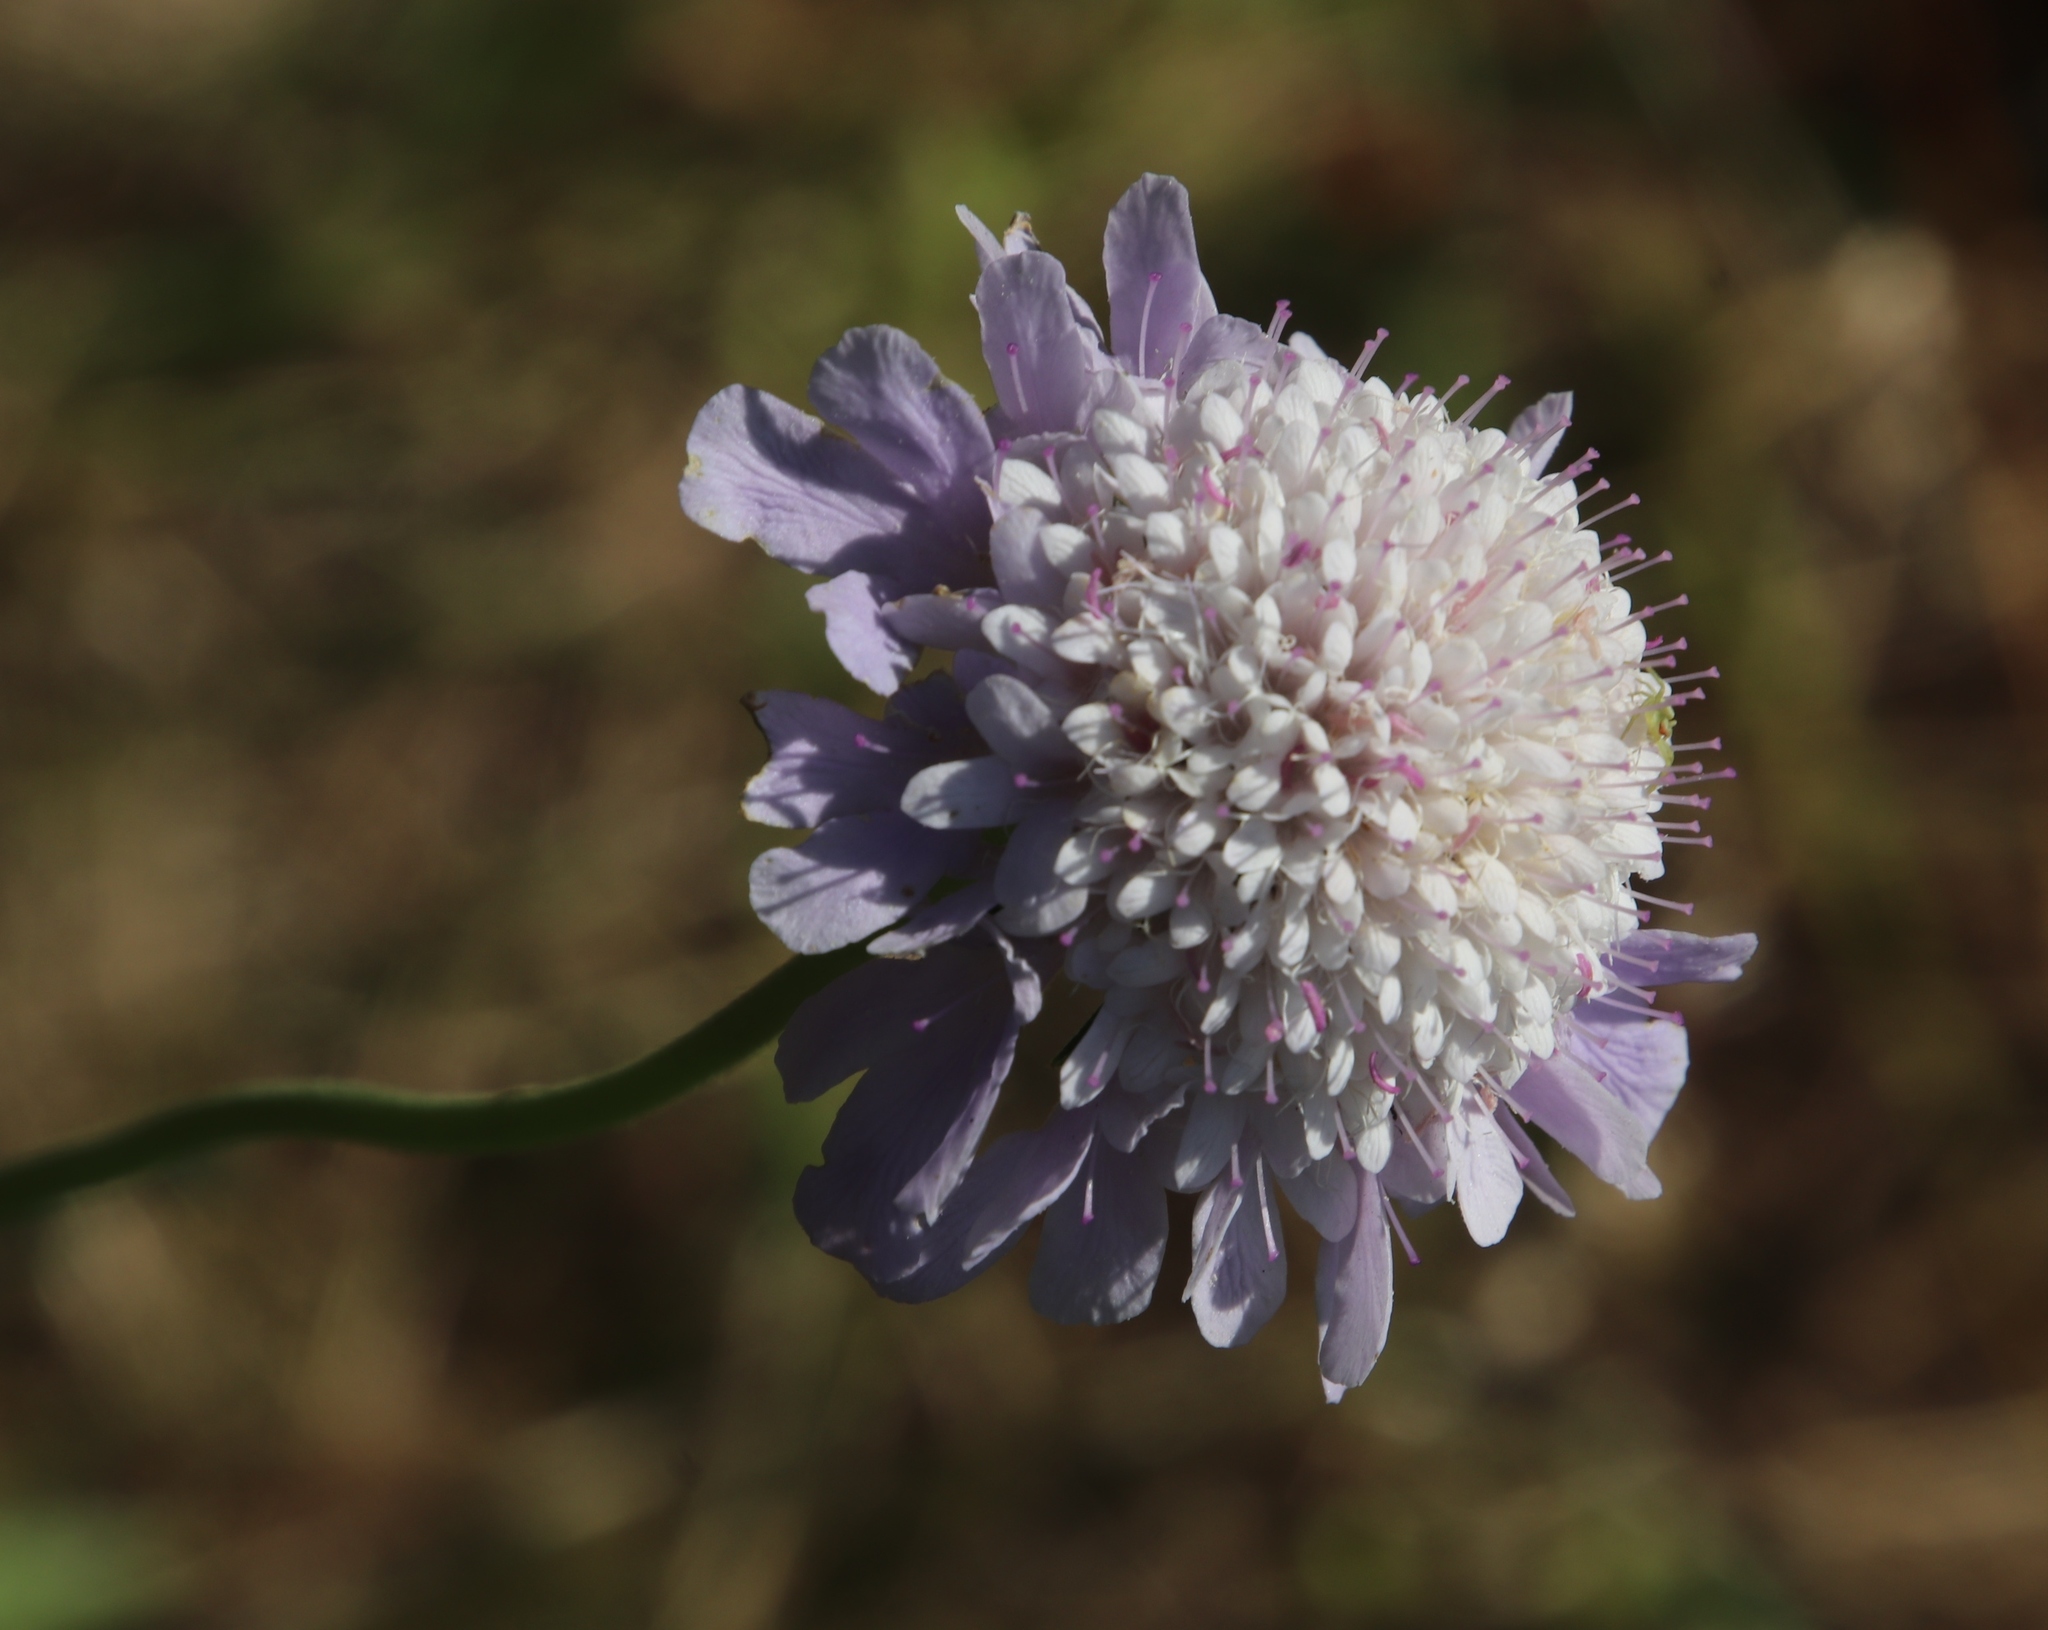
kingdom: Plantae
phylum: Tracheophyta
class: Magnoliopsida
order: Dipsacales
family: Caprifoliaceae
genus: Scabiosa
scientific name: Scabiosa africana
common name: Cape scabious
